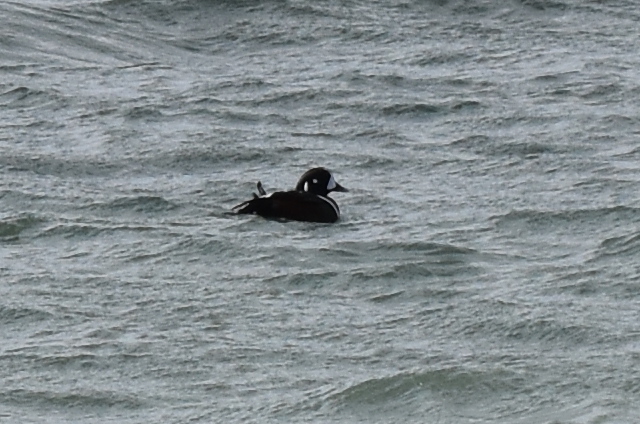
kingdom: Animalia
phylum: Chordata
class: Aves
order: Anseriformes
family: Anatidae
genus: Histrionicus
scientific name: Histrionicus histrionicus
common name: Harlequin duck
